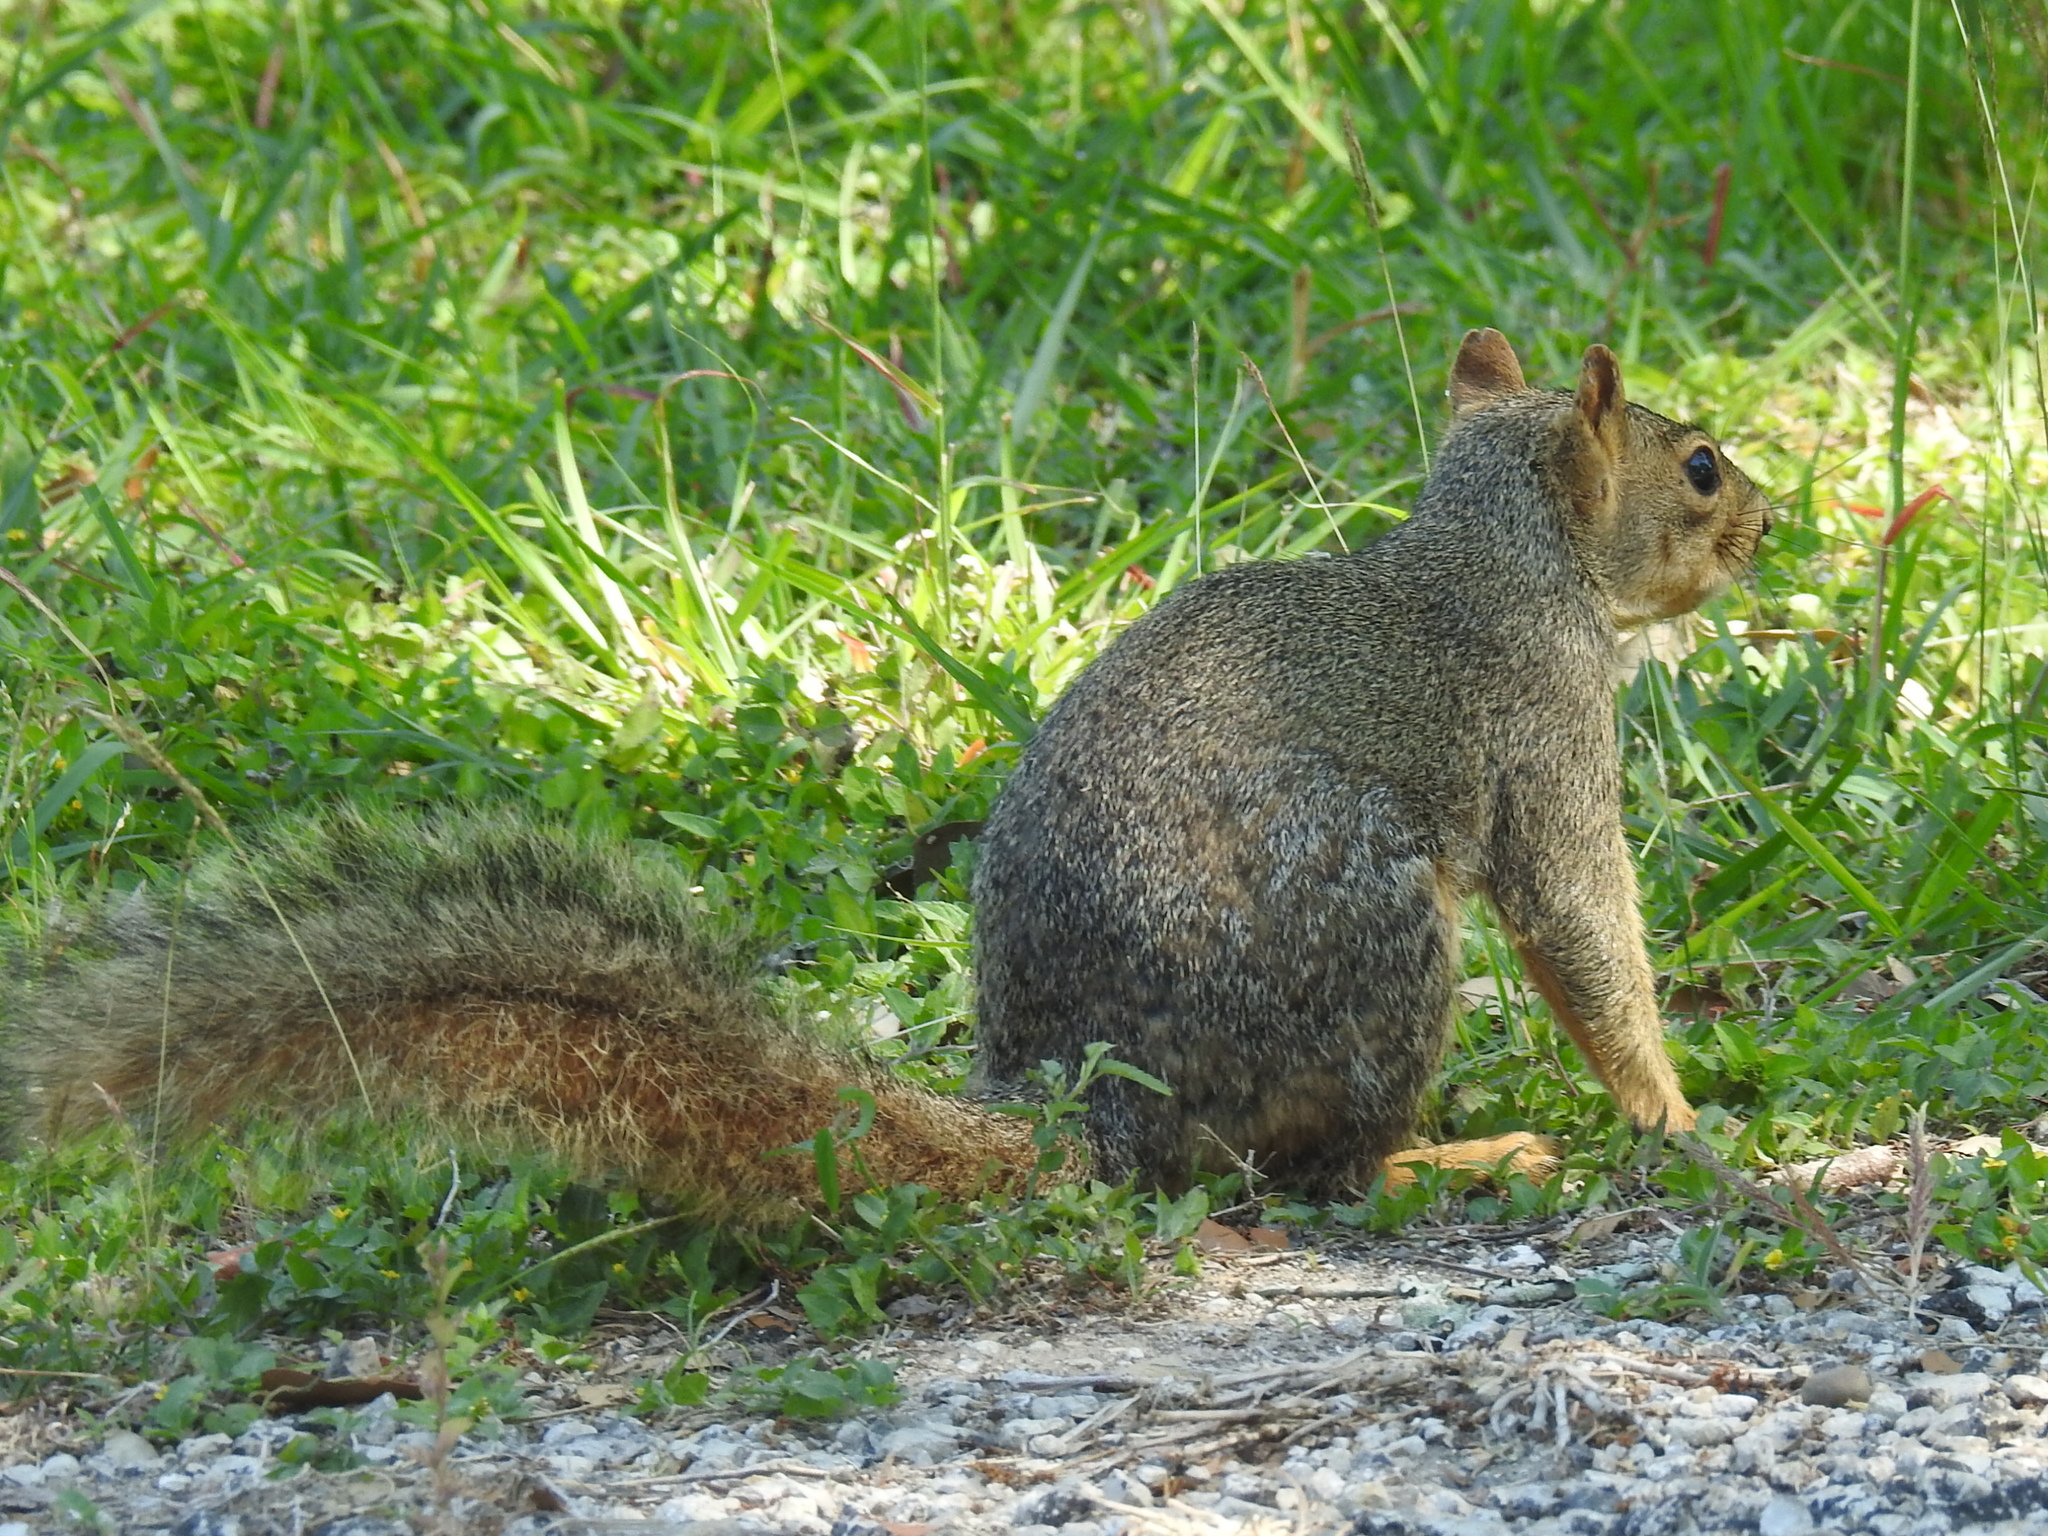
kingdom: Animalia
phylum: Chordata
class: Mammalia
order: Rodentia
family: Sciuridae
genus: Sciurus
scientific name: Sciurus niger
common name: Fox squirrel
